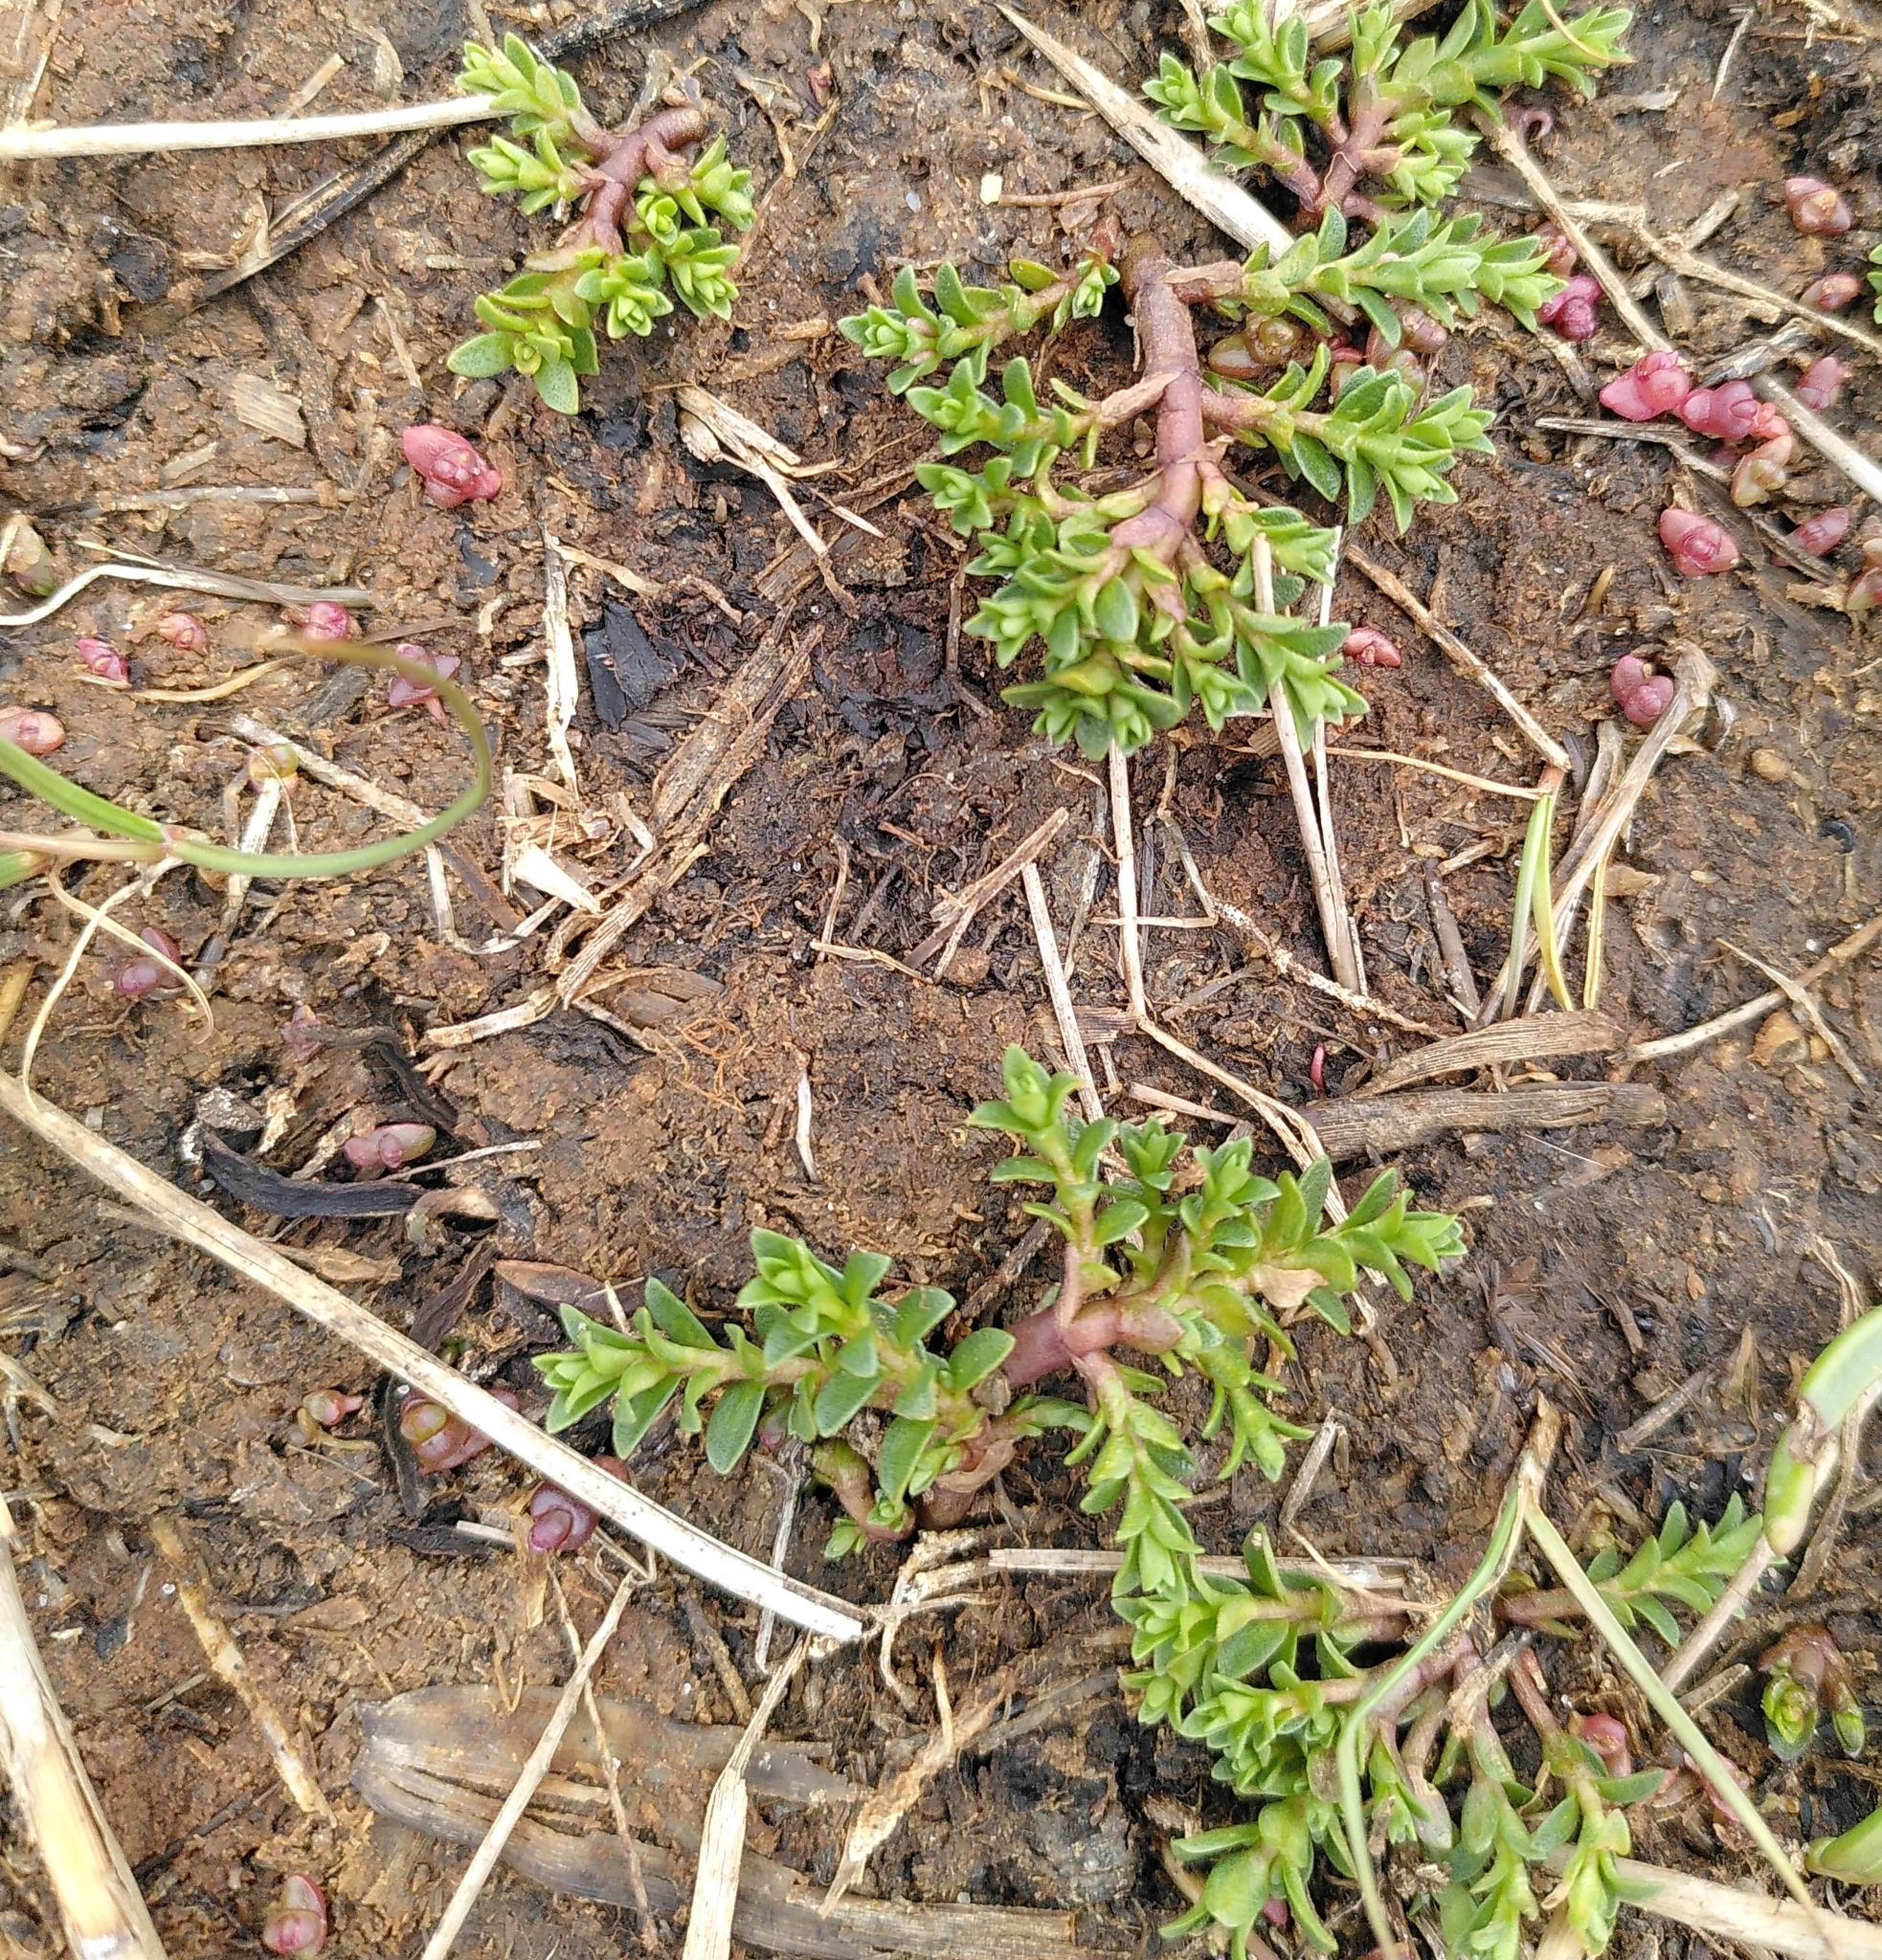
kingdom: Plantae
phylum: Tracheophyta
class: Magnoliopsida
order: Ericales
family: Primulaceae
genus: Lysimachia
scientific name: Lysimachia maritima
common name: Sea milkwort
